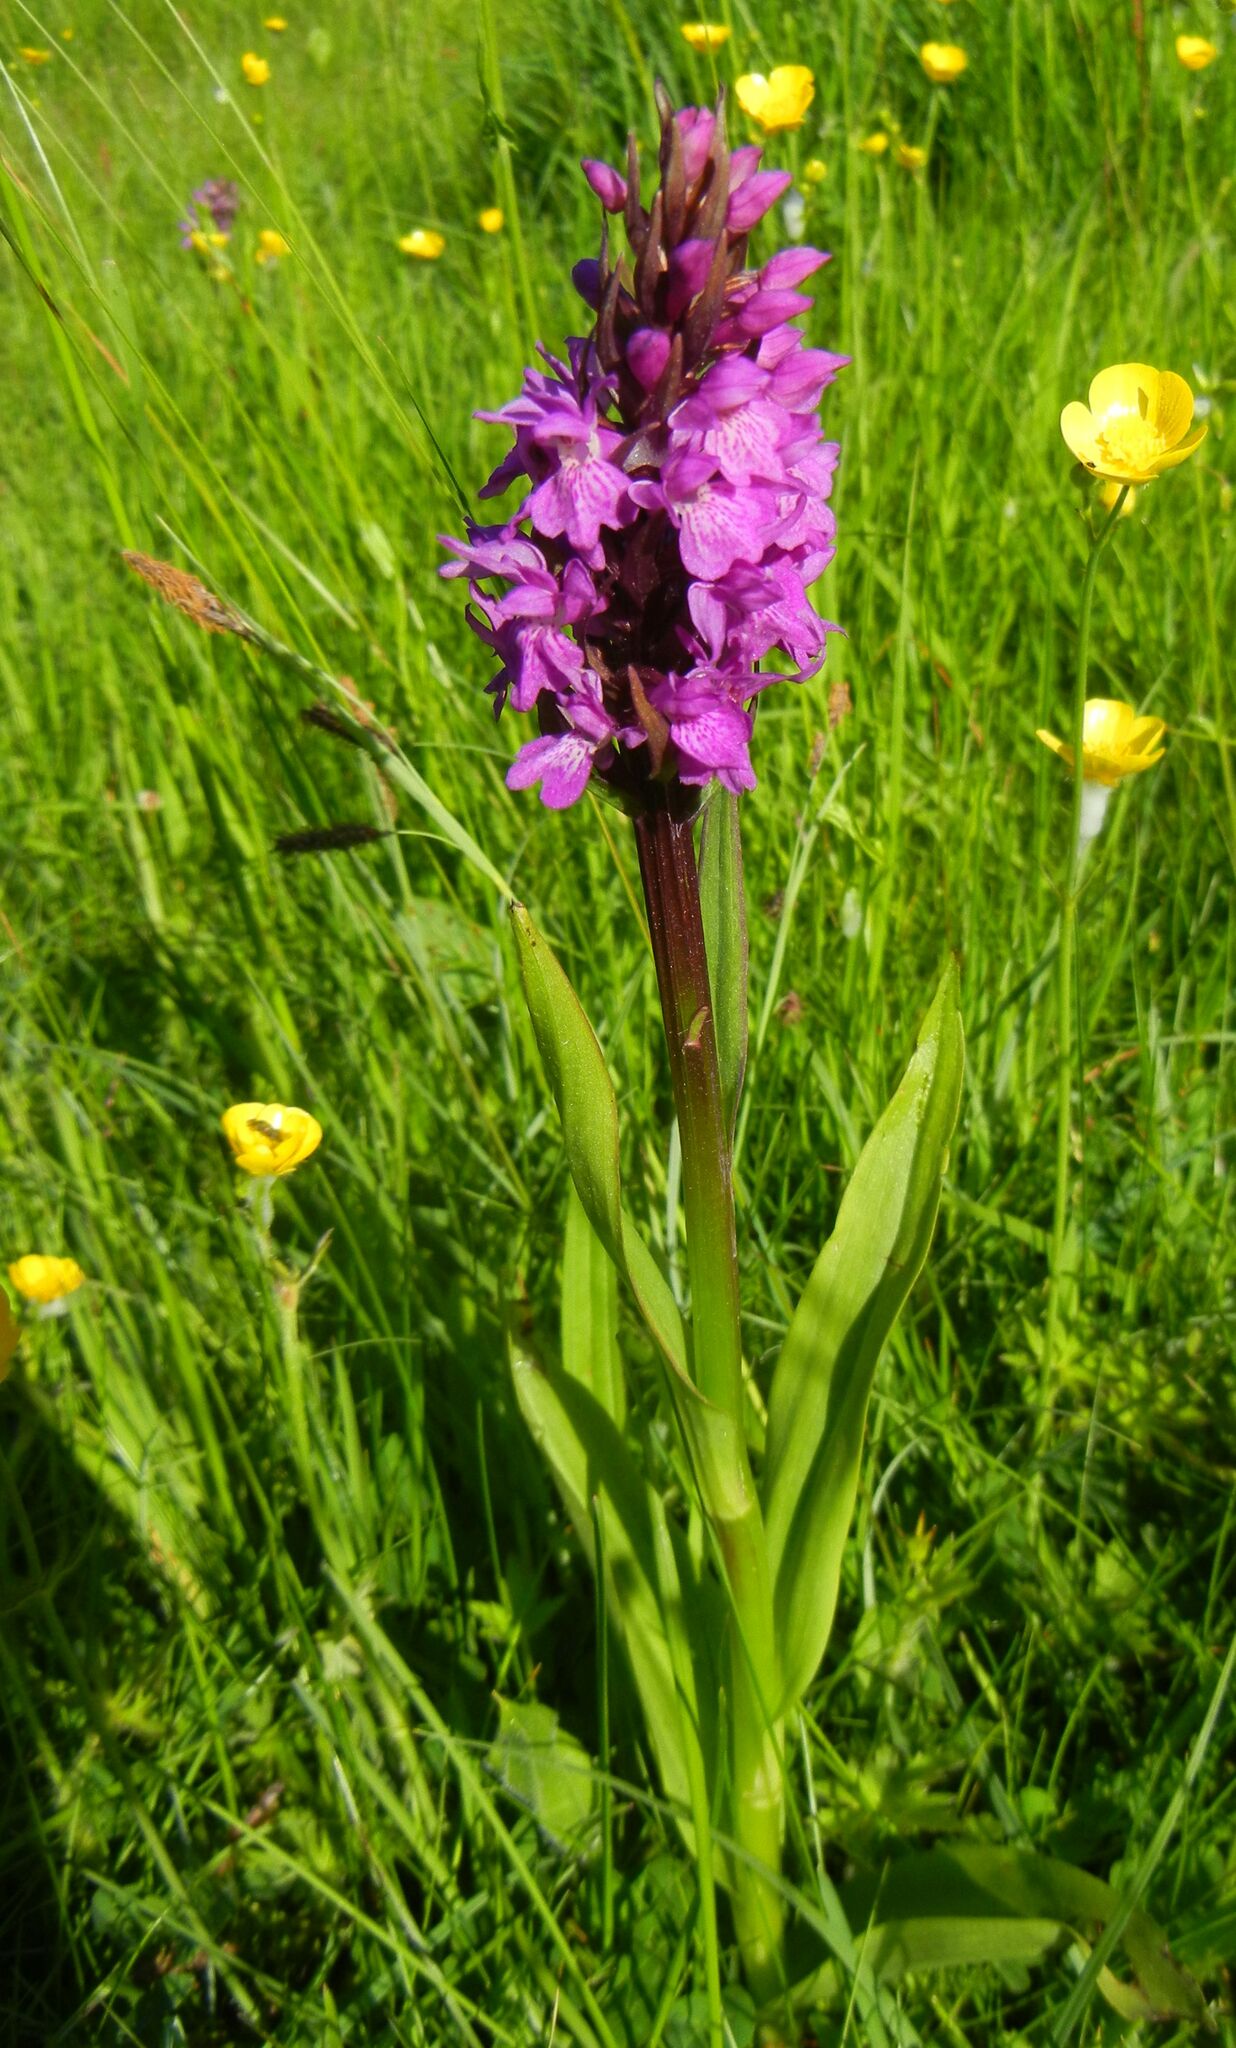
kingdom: Plantae
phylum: Tracheophyta
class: Liliopsida
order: Asparagales
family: Orchidaceae
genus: Dactylorhiza
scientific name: Dactylorhiza majalis
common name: Marsh orchid
